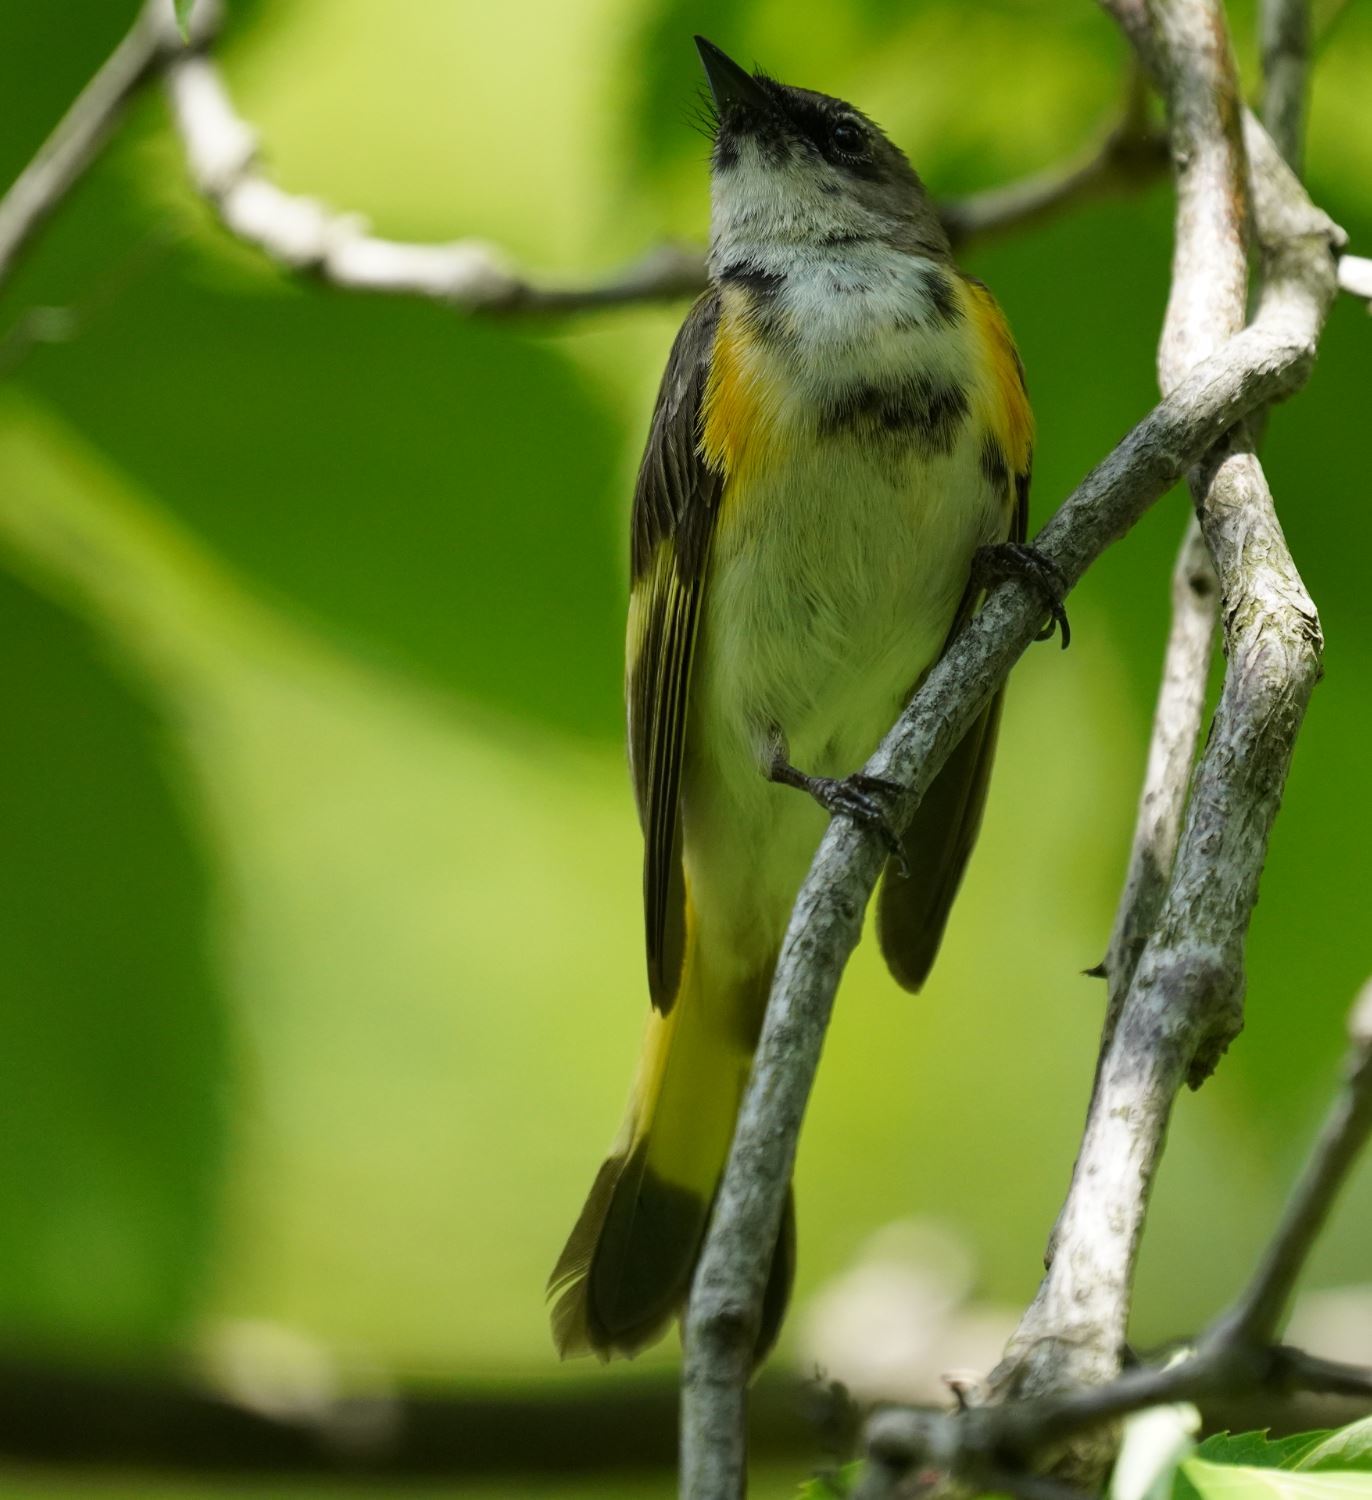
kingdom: Animalia
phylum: Chordata
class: Aves
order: Passeriformes
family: Parulidae
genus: Setophaga
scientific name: Setophaga ruticilla
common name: American redstart
